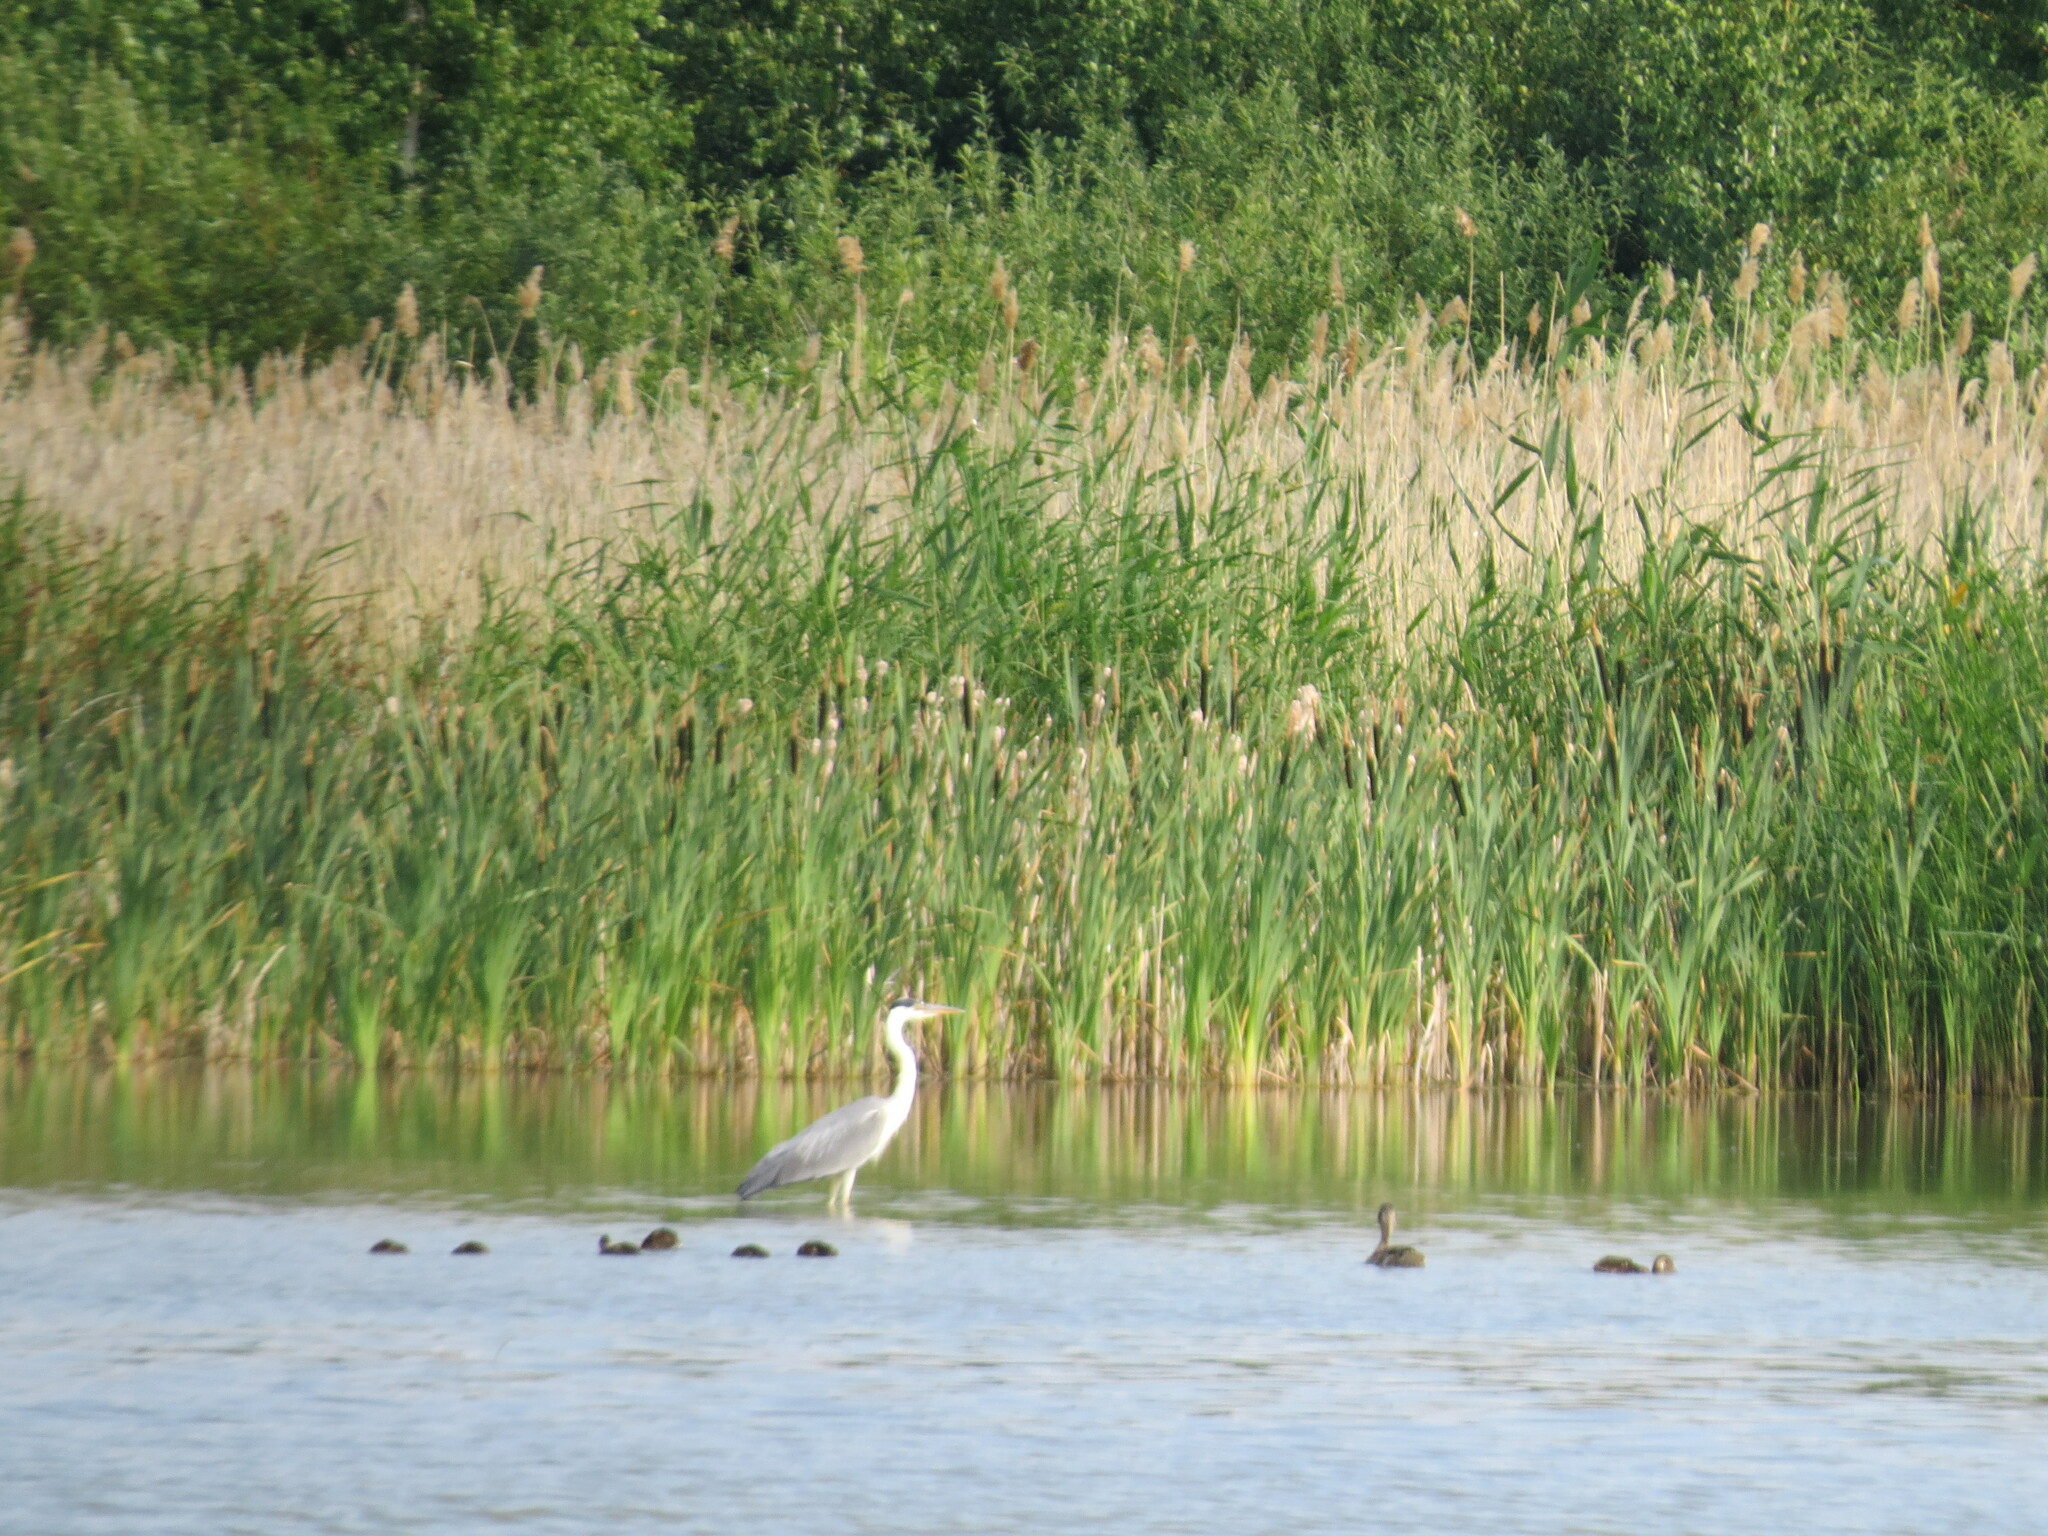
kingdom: Animalia
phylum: Chordata
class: Aves
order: Pelecaniformes
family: Ardeidae
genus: Ardea
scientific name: Ardea cinerea
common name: Grey heron
